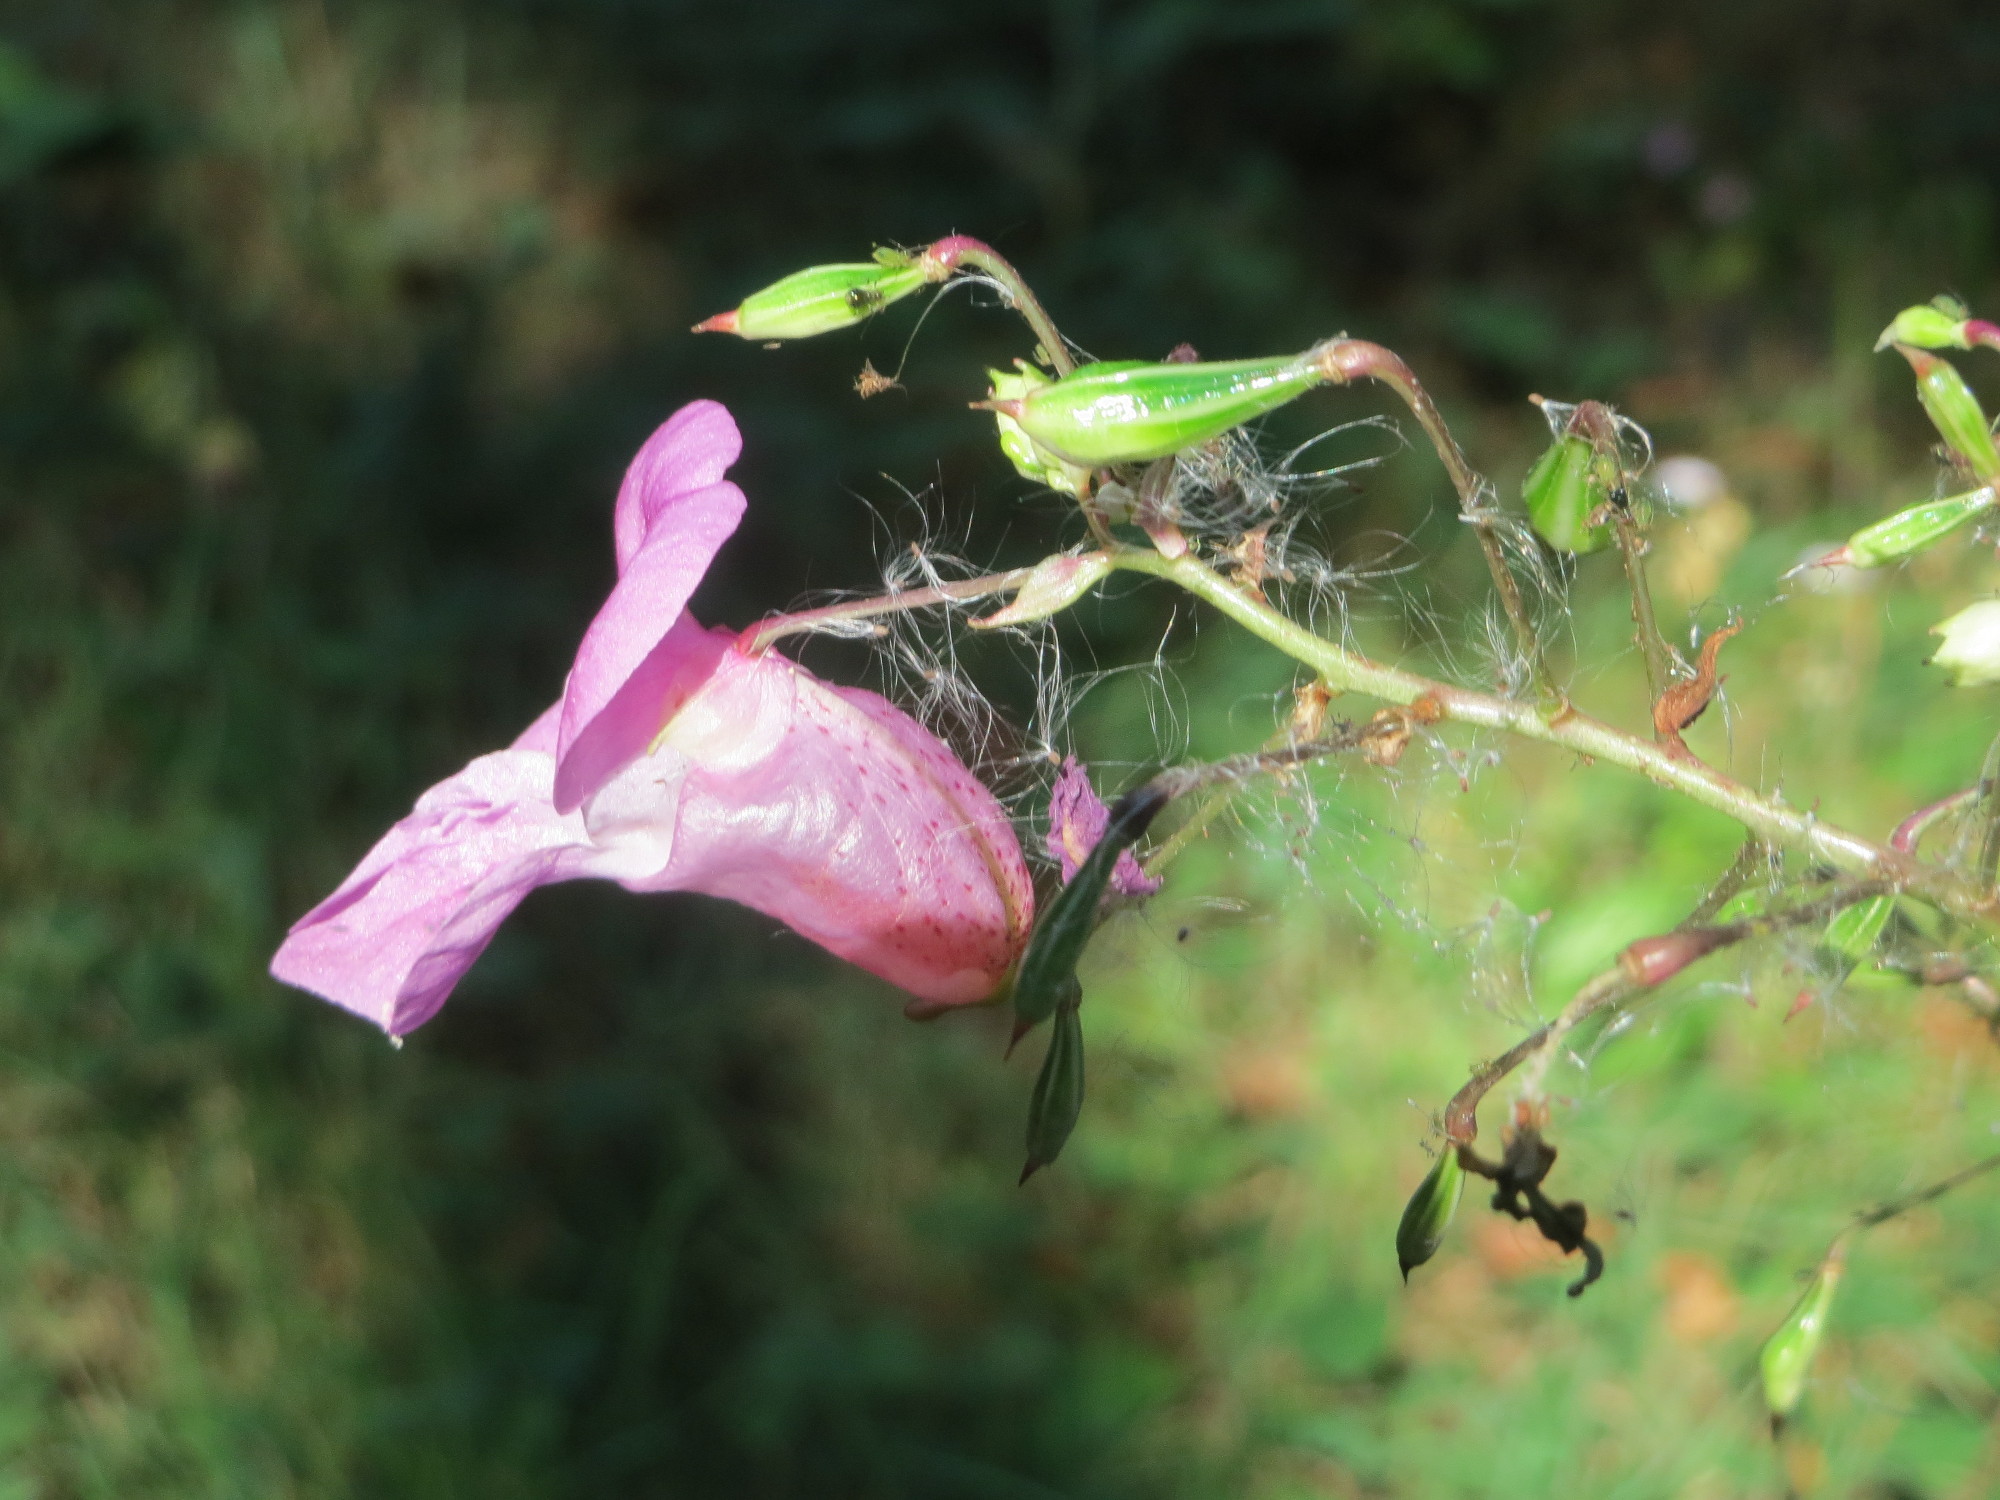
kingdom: Plantae
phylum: Tracheophyta
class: Magnoliopsida
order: Ericales
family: Balsaminaceae
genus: Impatiens
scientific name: Impatiens glandulifera
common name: Himalayan balsam
